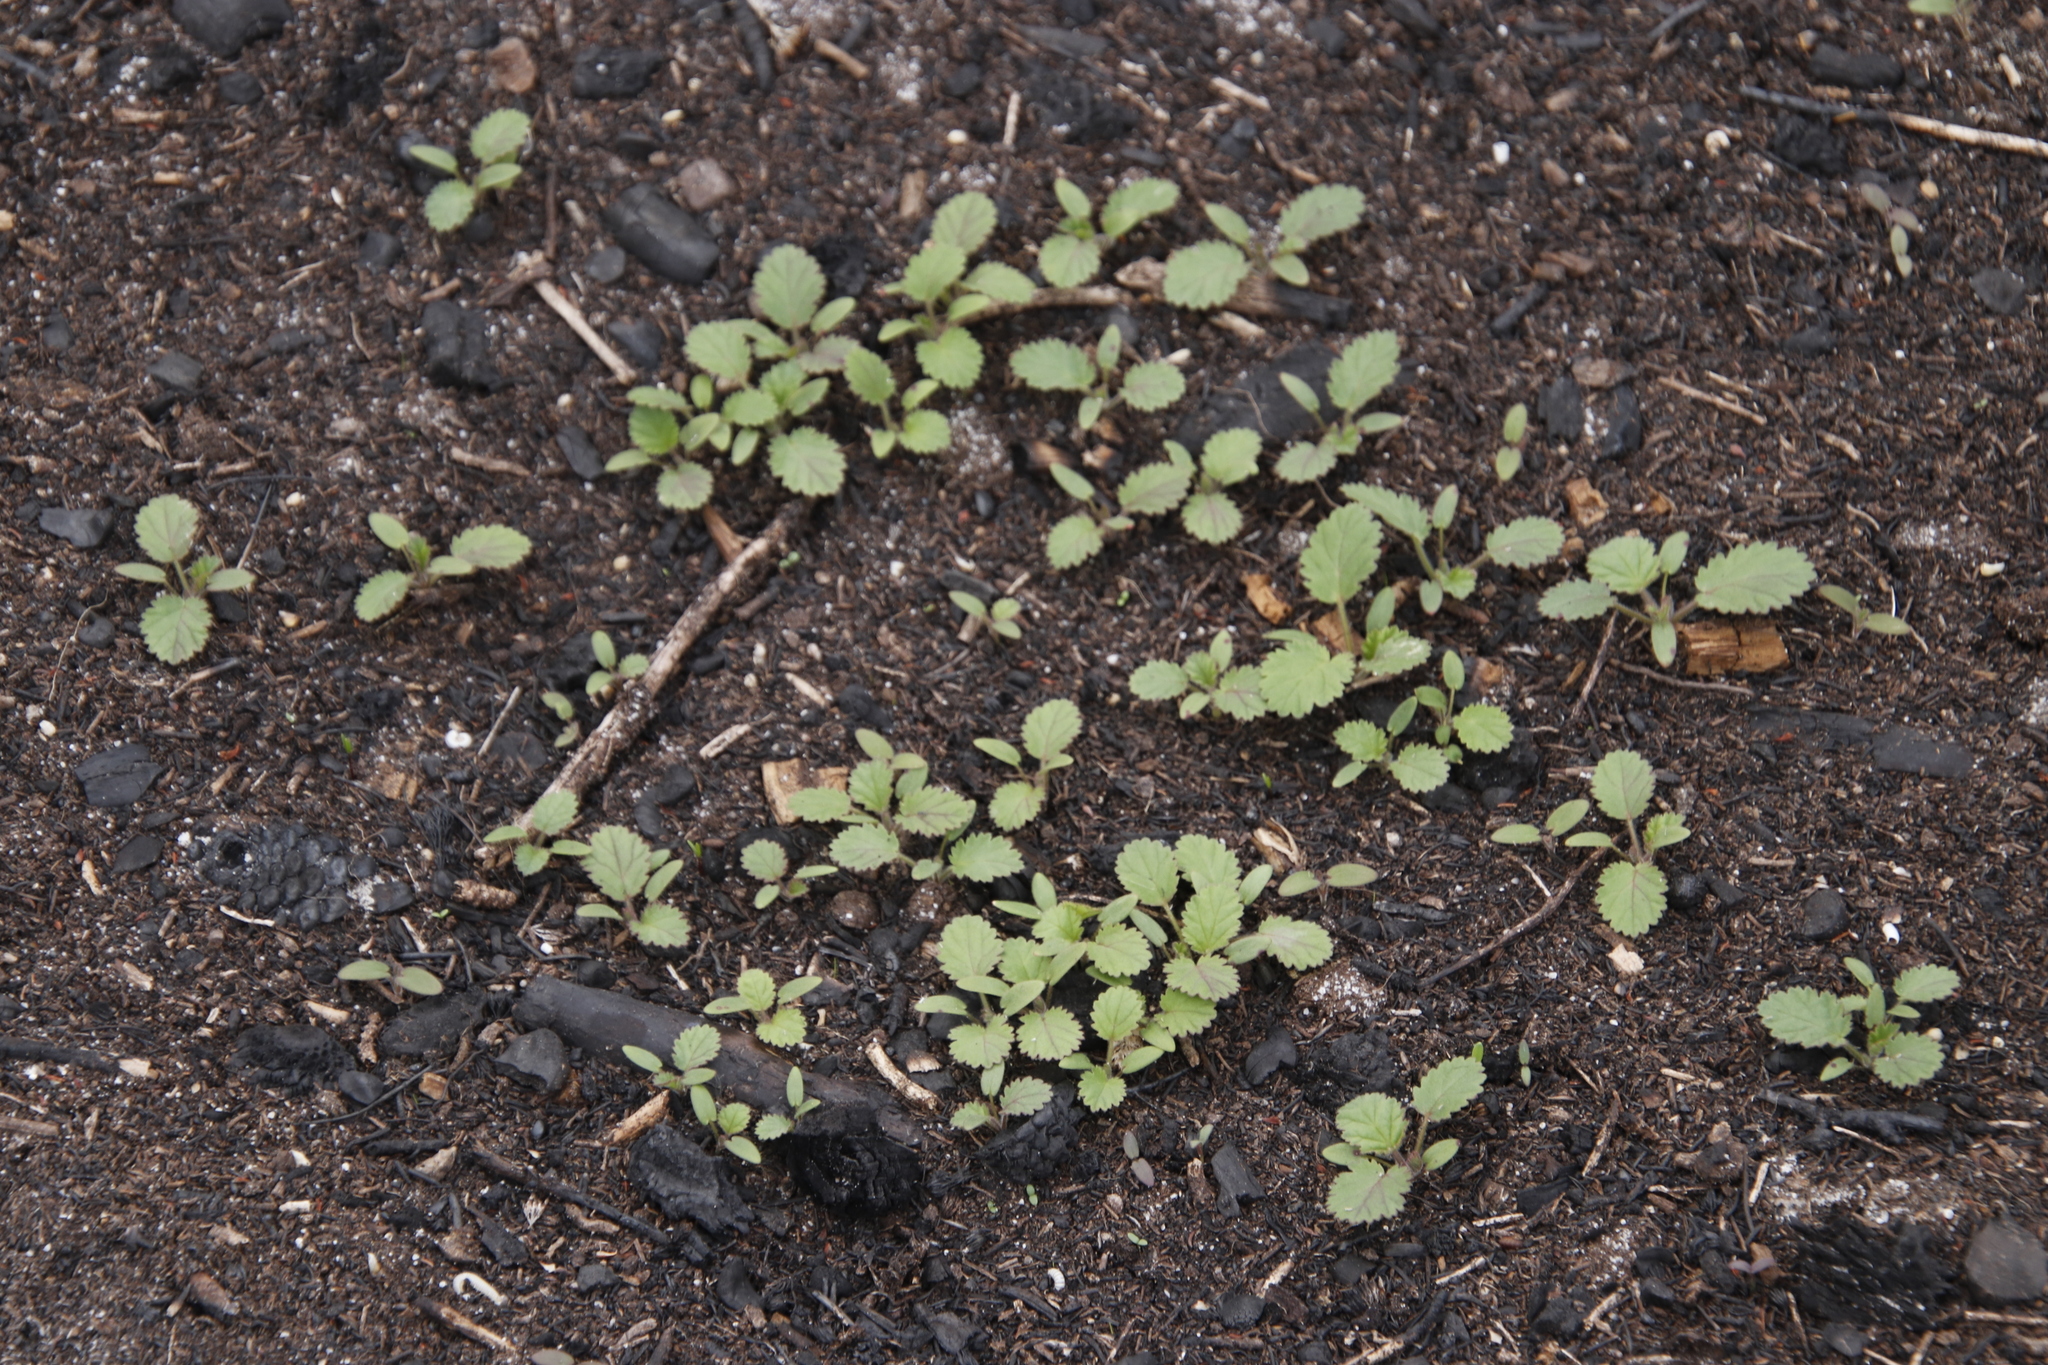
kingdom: Plantae
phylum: Tracheophyta
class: Magnoliopsida
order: Geraniales
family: Geraniaceae
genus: Pelargonium
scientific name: Pelargonium althaeoides
